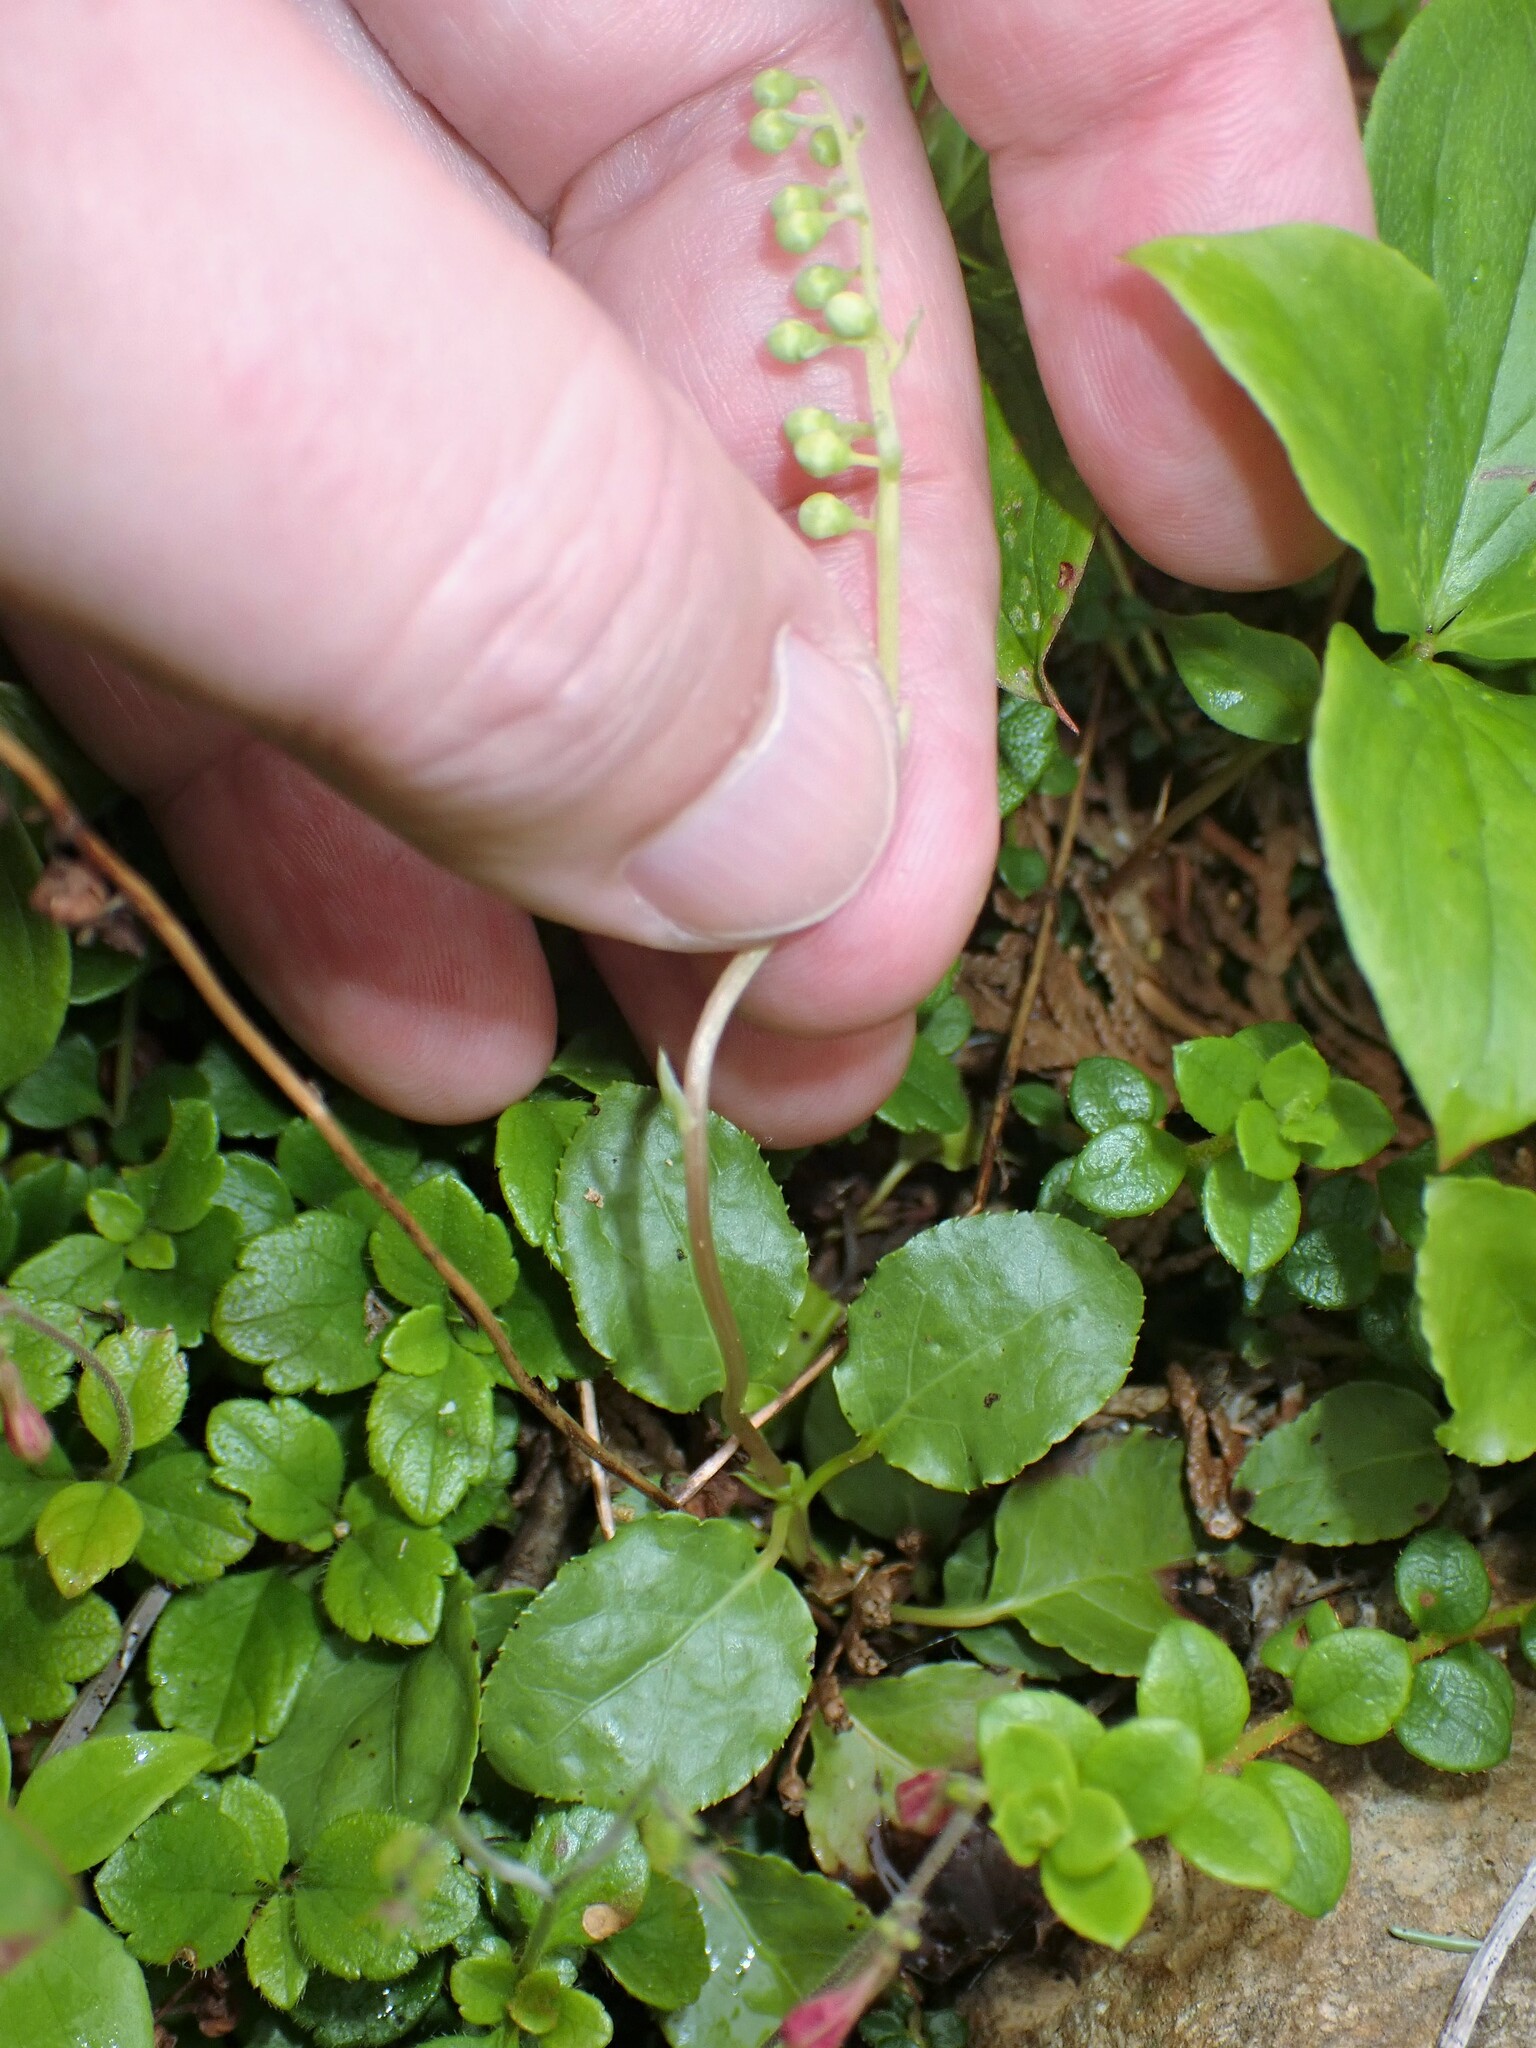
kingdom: Plantae
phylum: Tracheophyta
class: Magnoliopsida
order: Ericales
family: Ericaceae
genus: Orthilia
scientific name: Orthilia secunda
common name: One-sided orthilia
